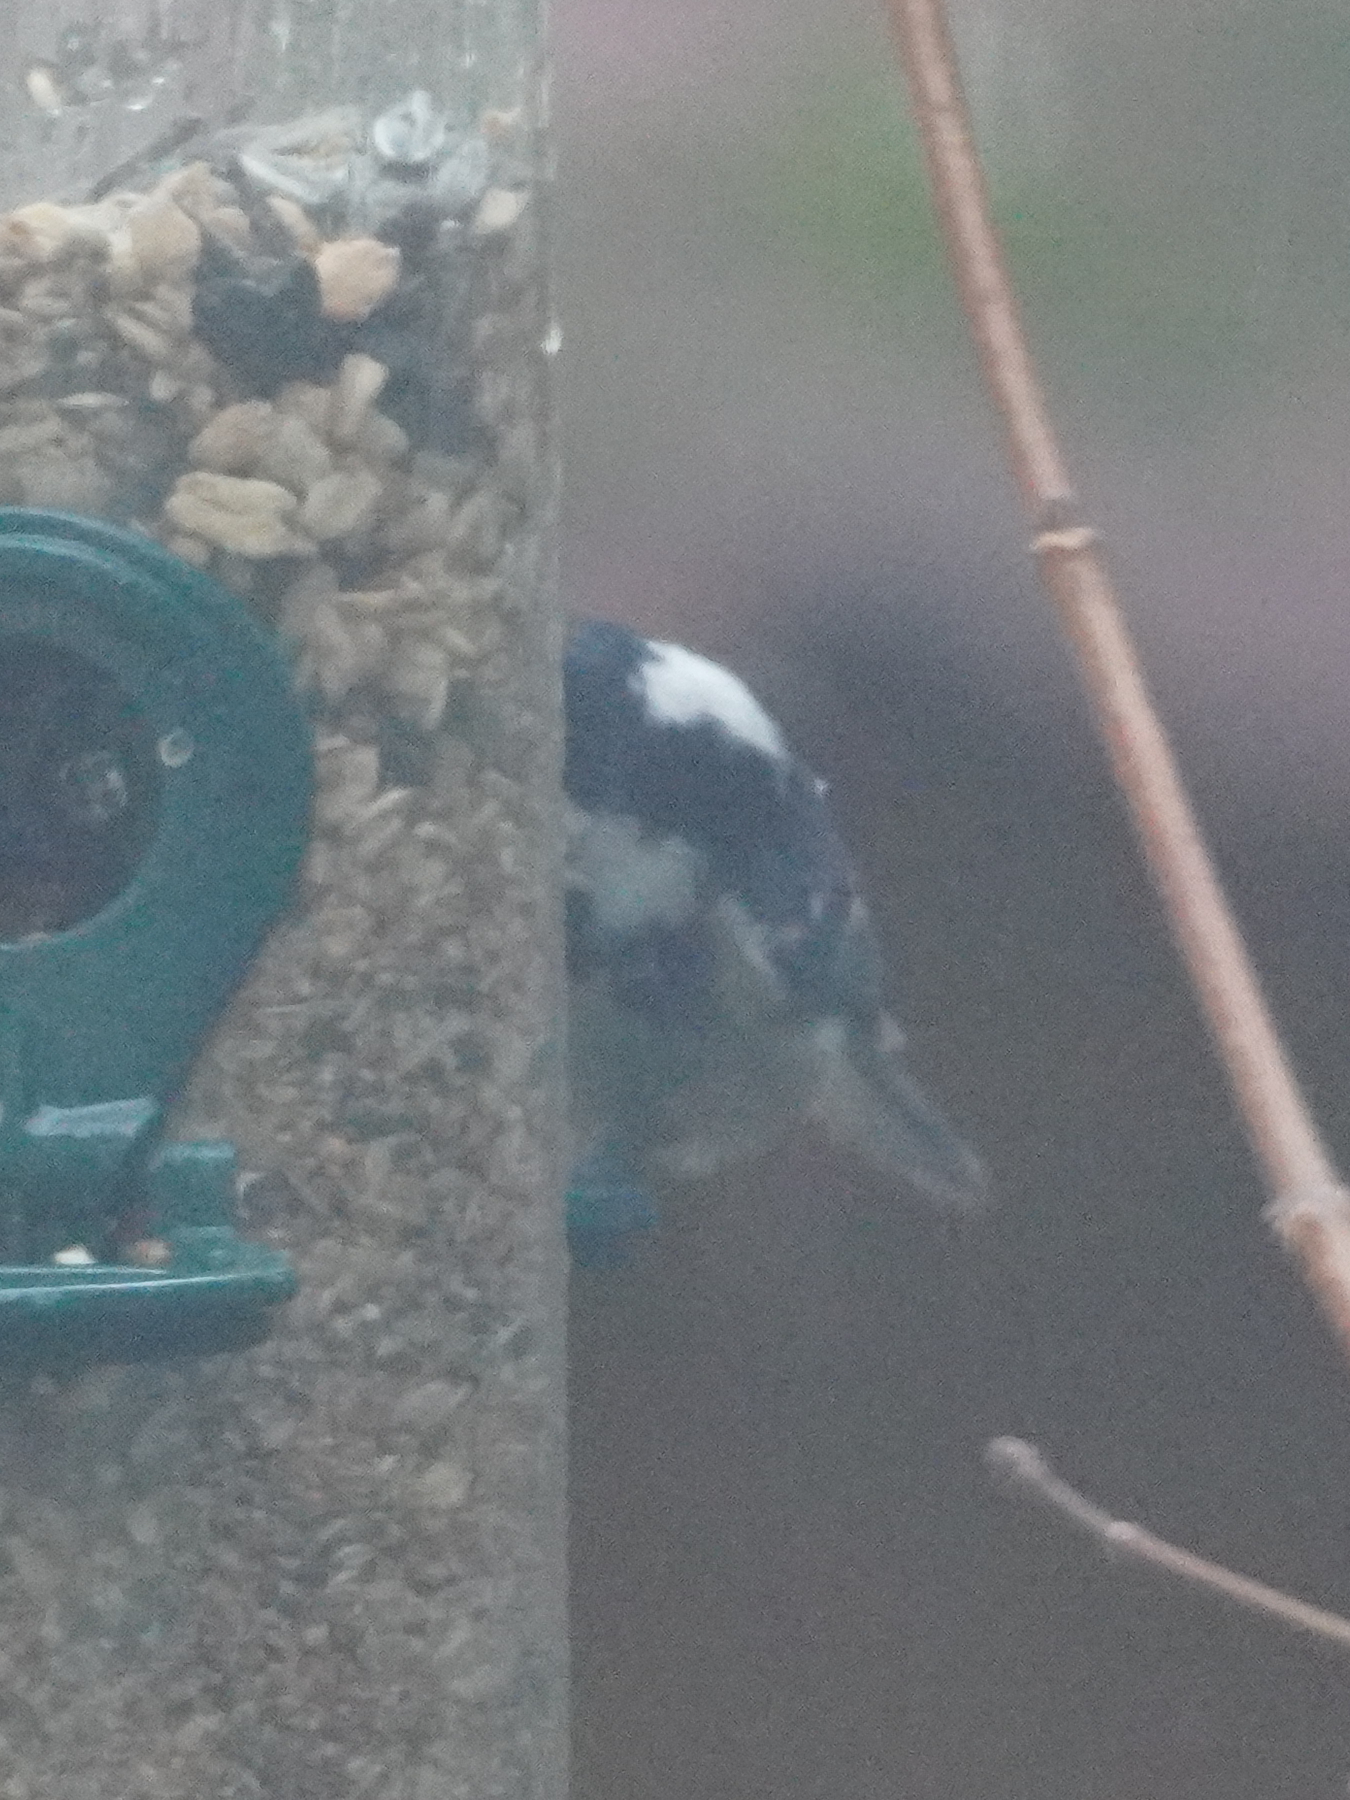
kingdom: Animalia
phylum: Chordata
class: Aves
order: Passeriformes
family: Paridae
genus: Periparus
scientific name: Periparus ater
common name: Coal tit
